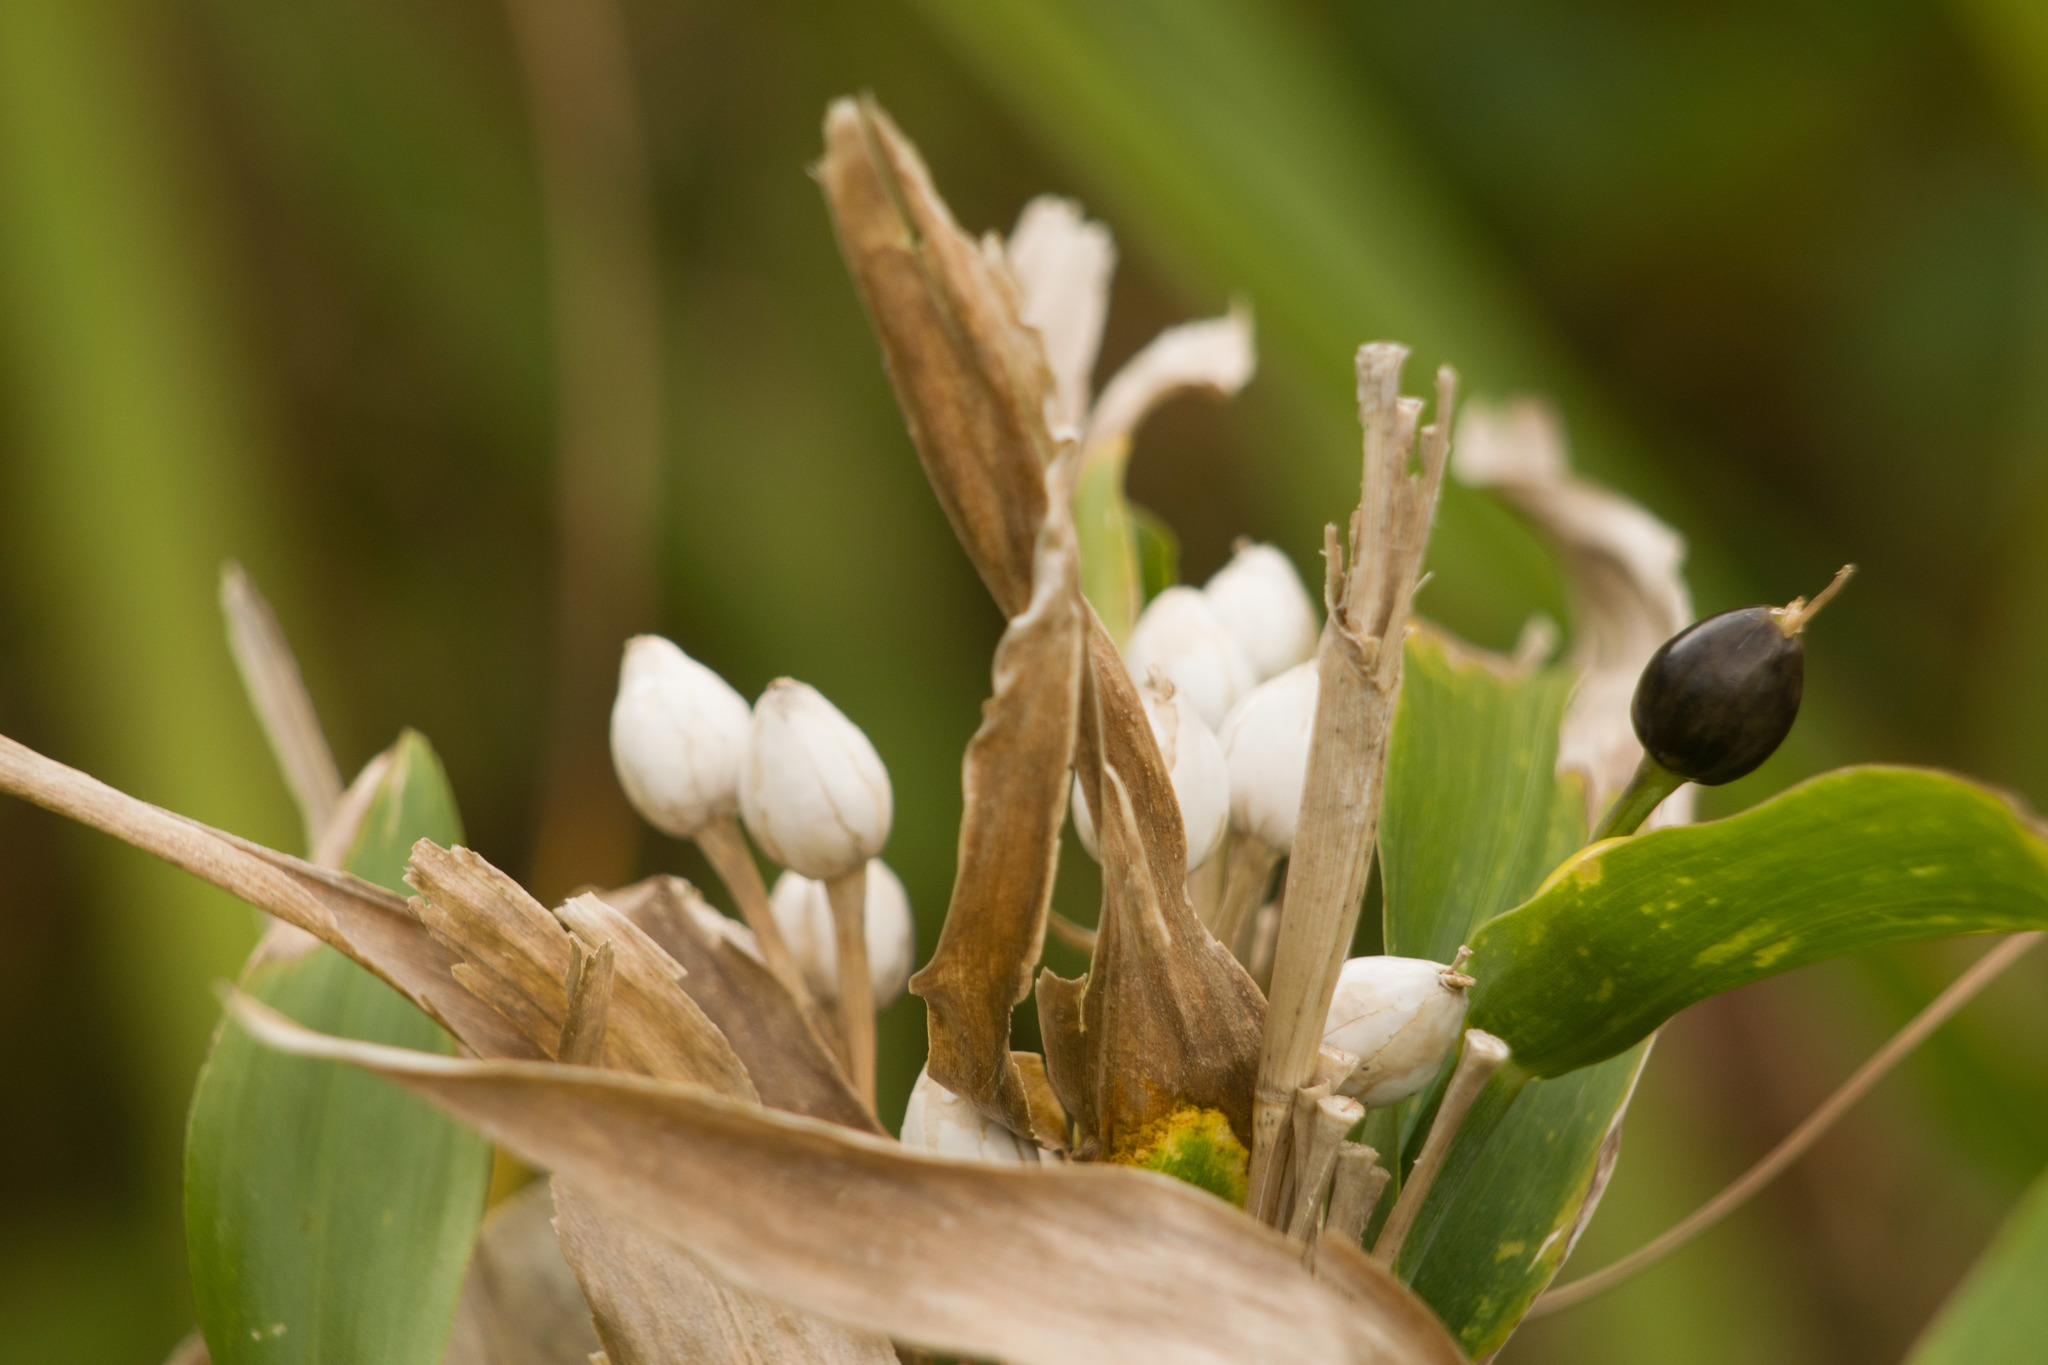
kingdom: Plantae
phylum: Tracheophyta
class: Liliopsida
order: Poales
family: Poaceae
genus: Coix
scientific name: Coix lacryma-jobi
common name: Job's tears
